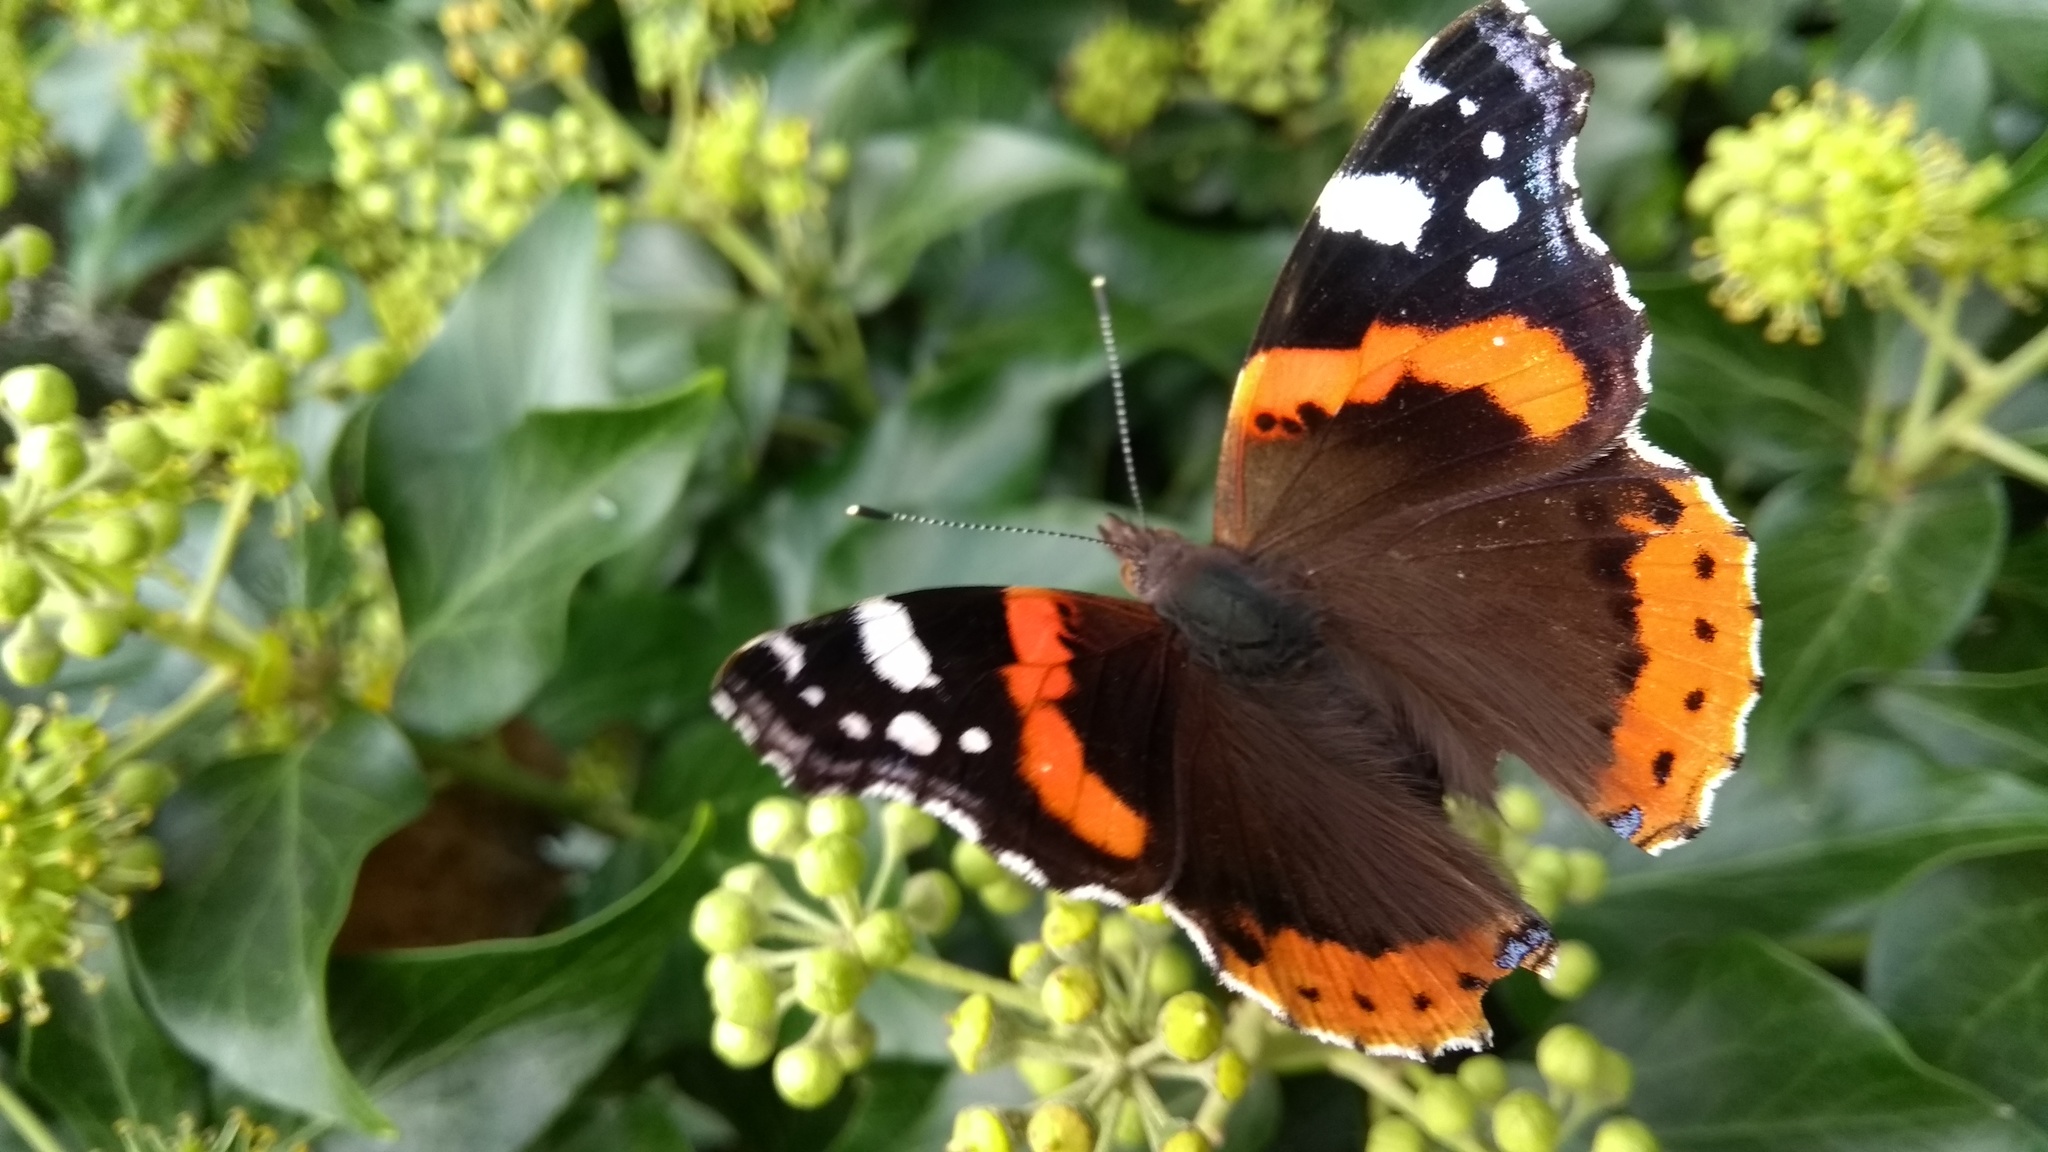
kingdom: Animalia
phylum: Arthropoda
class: Insecta
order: Lepidoptera
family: Nymphalidae
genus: Vanessa
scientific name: Vanessa atalanta
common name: Red admiral
